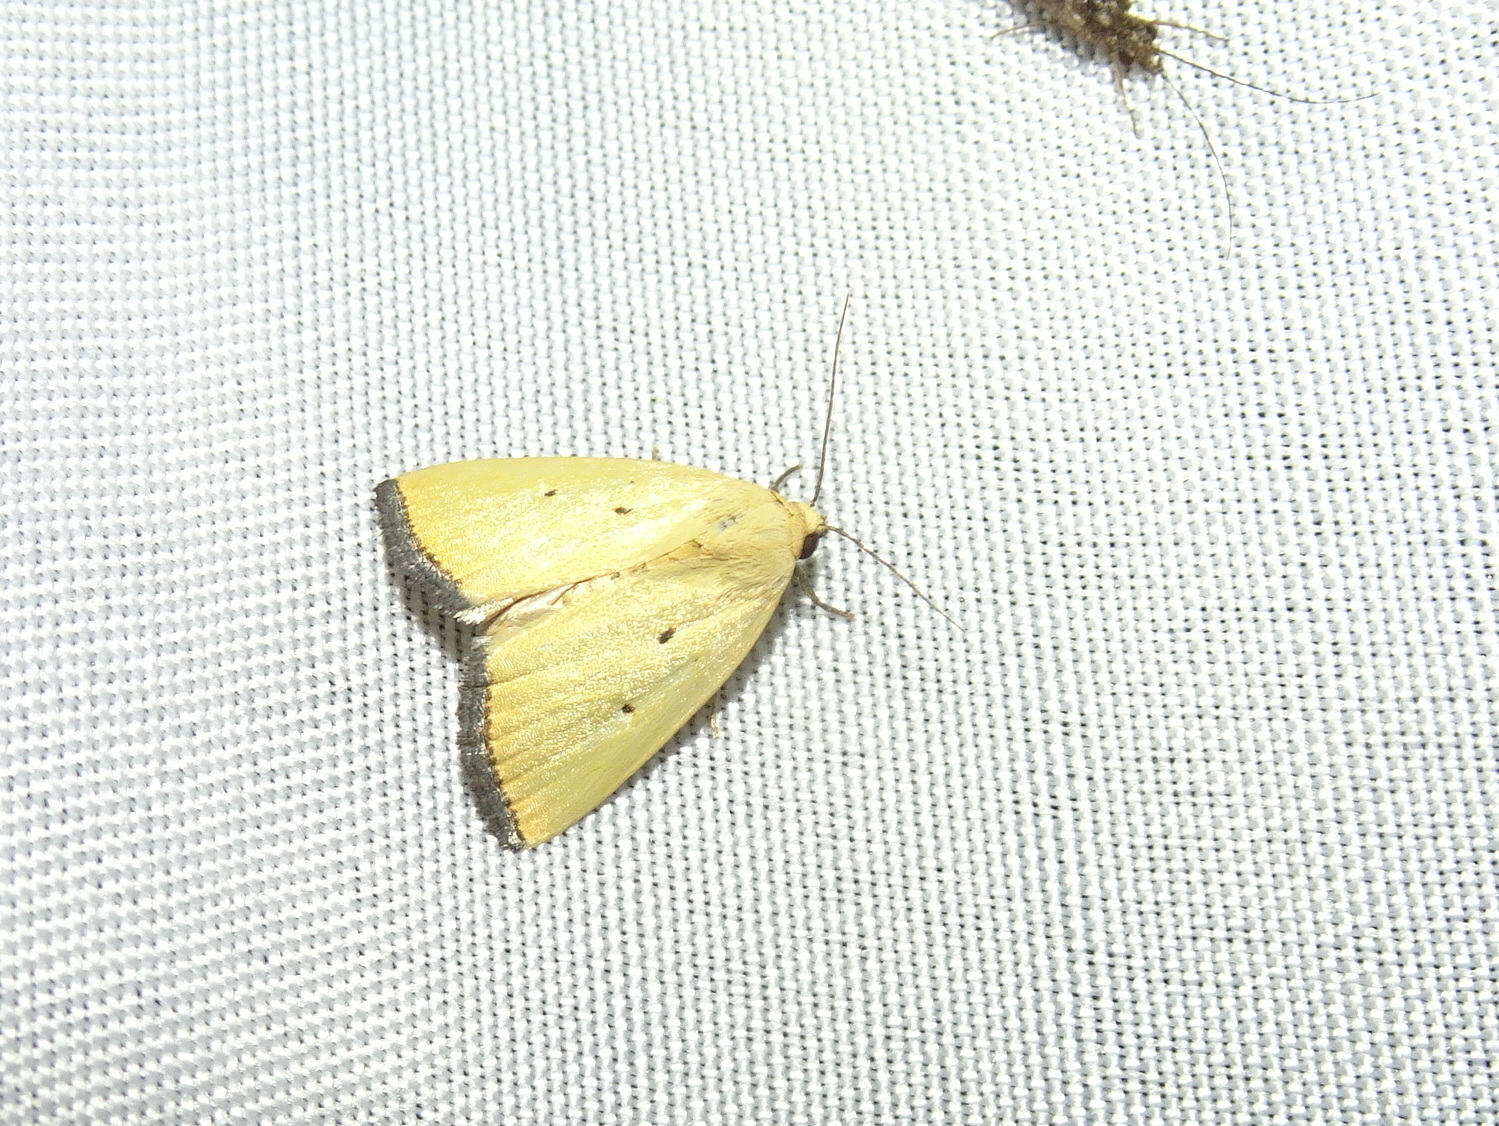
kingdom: Animalia
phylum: Arthropoda
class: Insecta
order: Lepidoptera
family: Noctuidae
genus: Marimatha
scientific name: Marimatha nigrofimbria
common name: Black-bordered lemon moth
